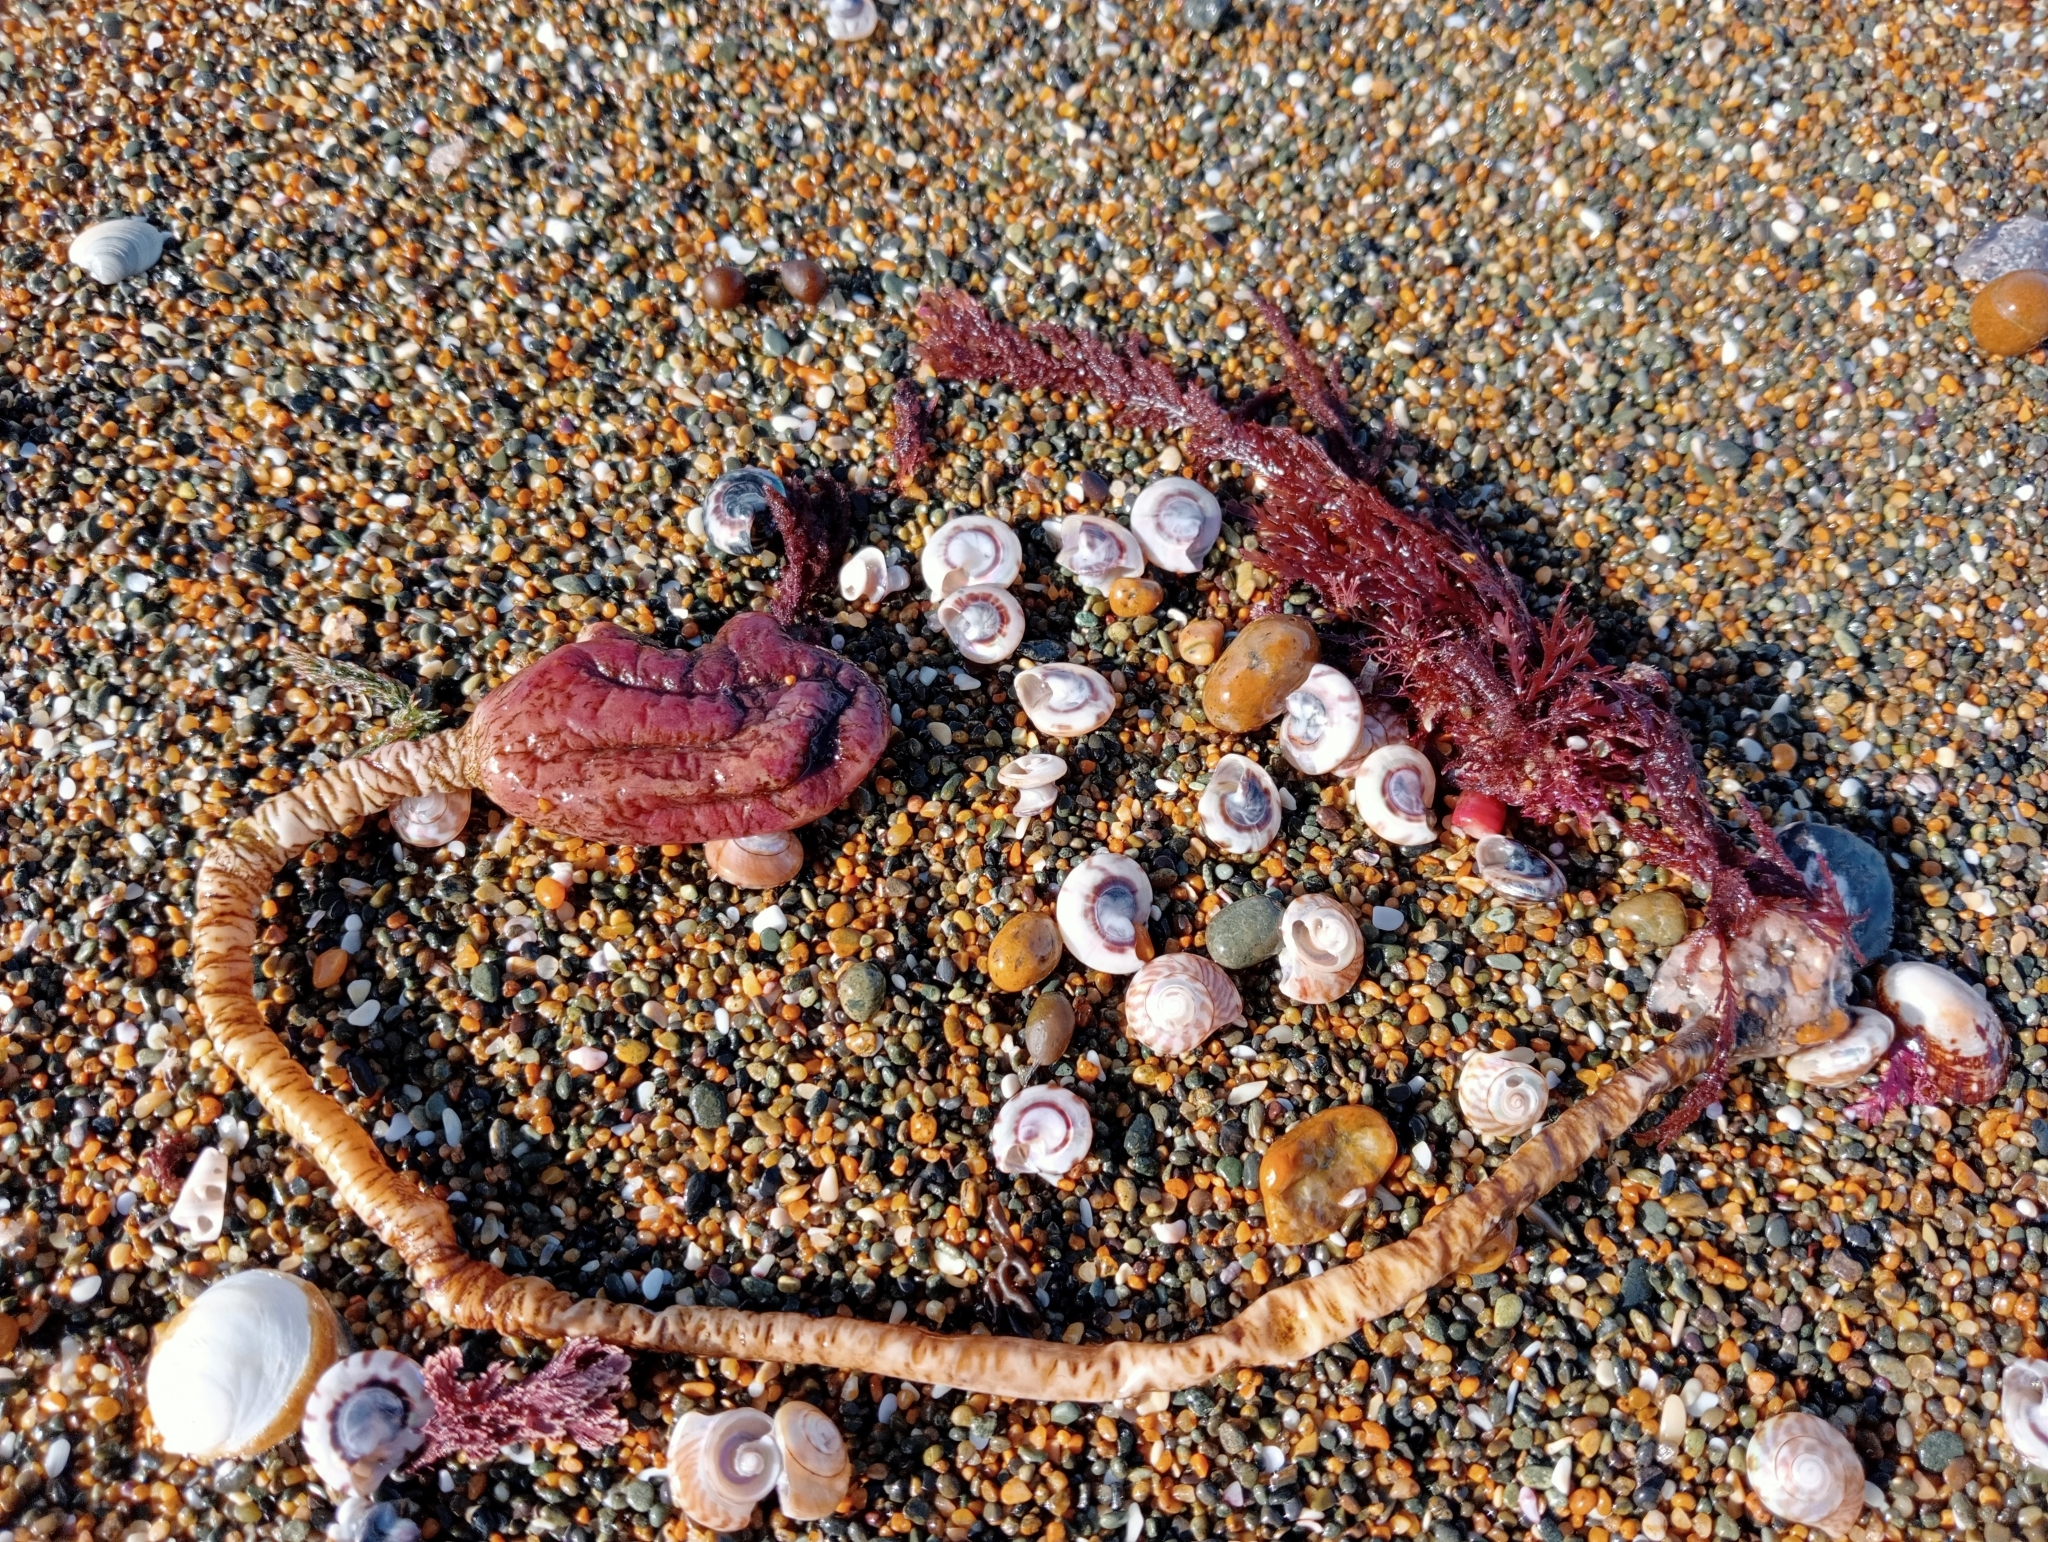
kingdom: Animalia
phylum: Chordata
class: Ascidiacea
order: Stolidobranchia
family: Pyuridae
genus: Pyura
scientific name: Pyura pachydermatina
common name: Sea tulip
